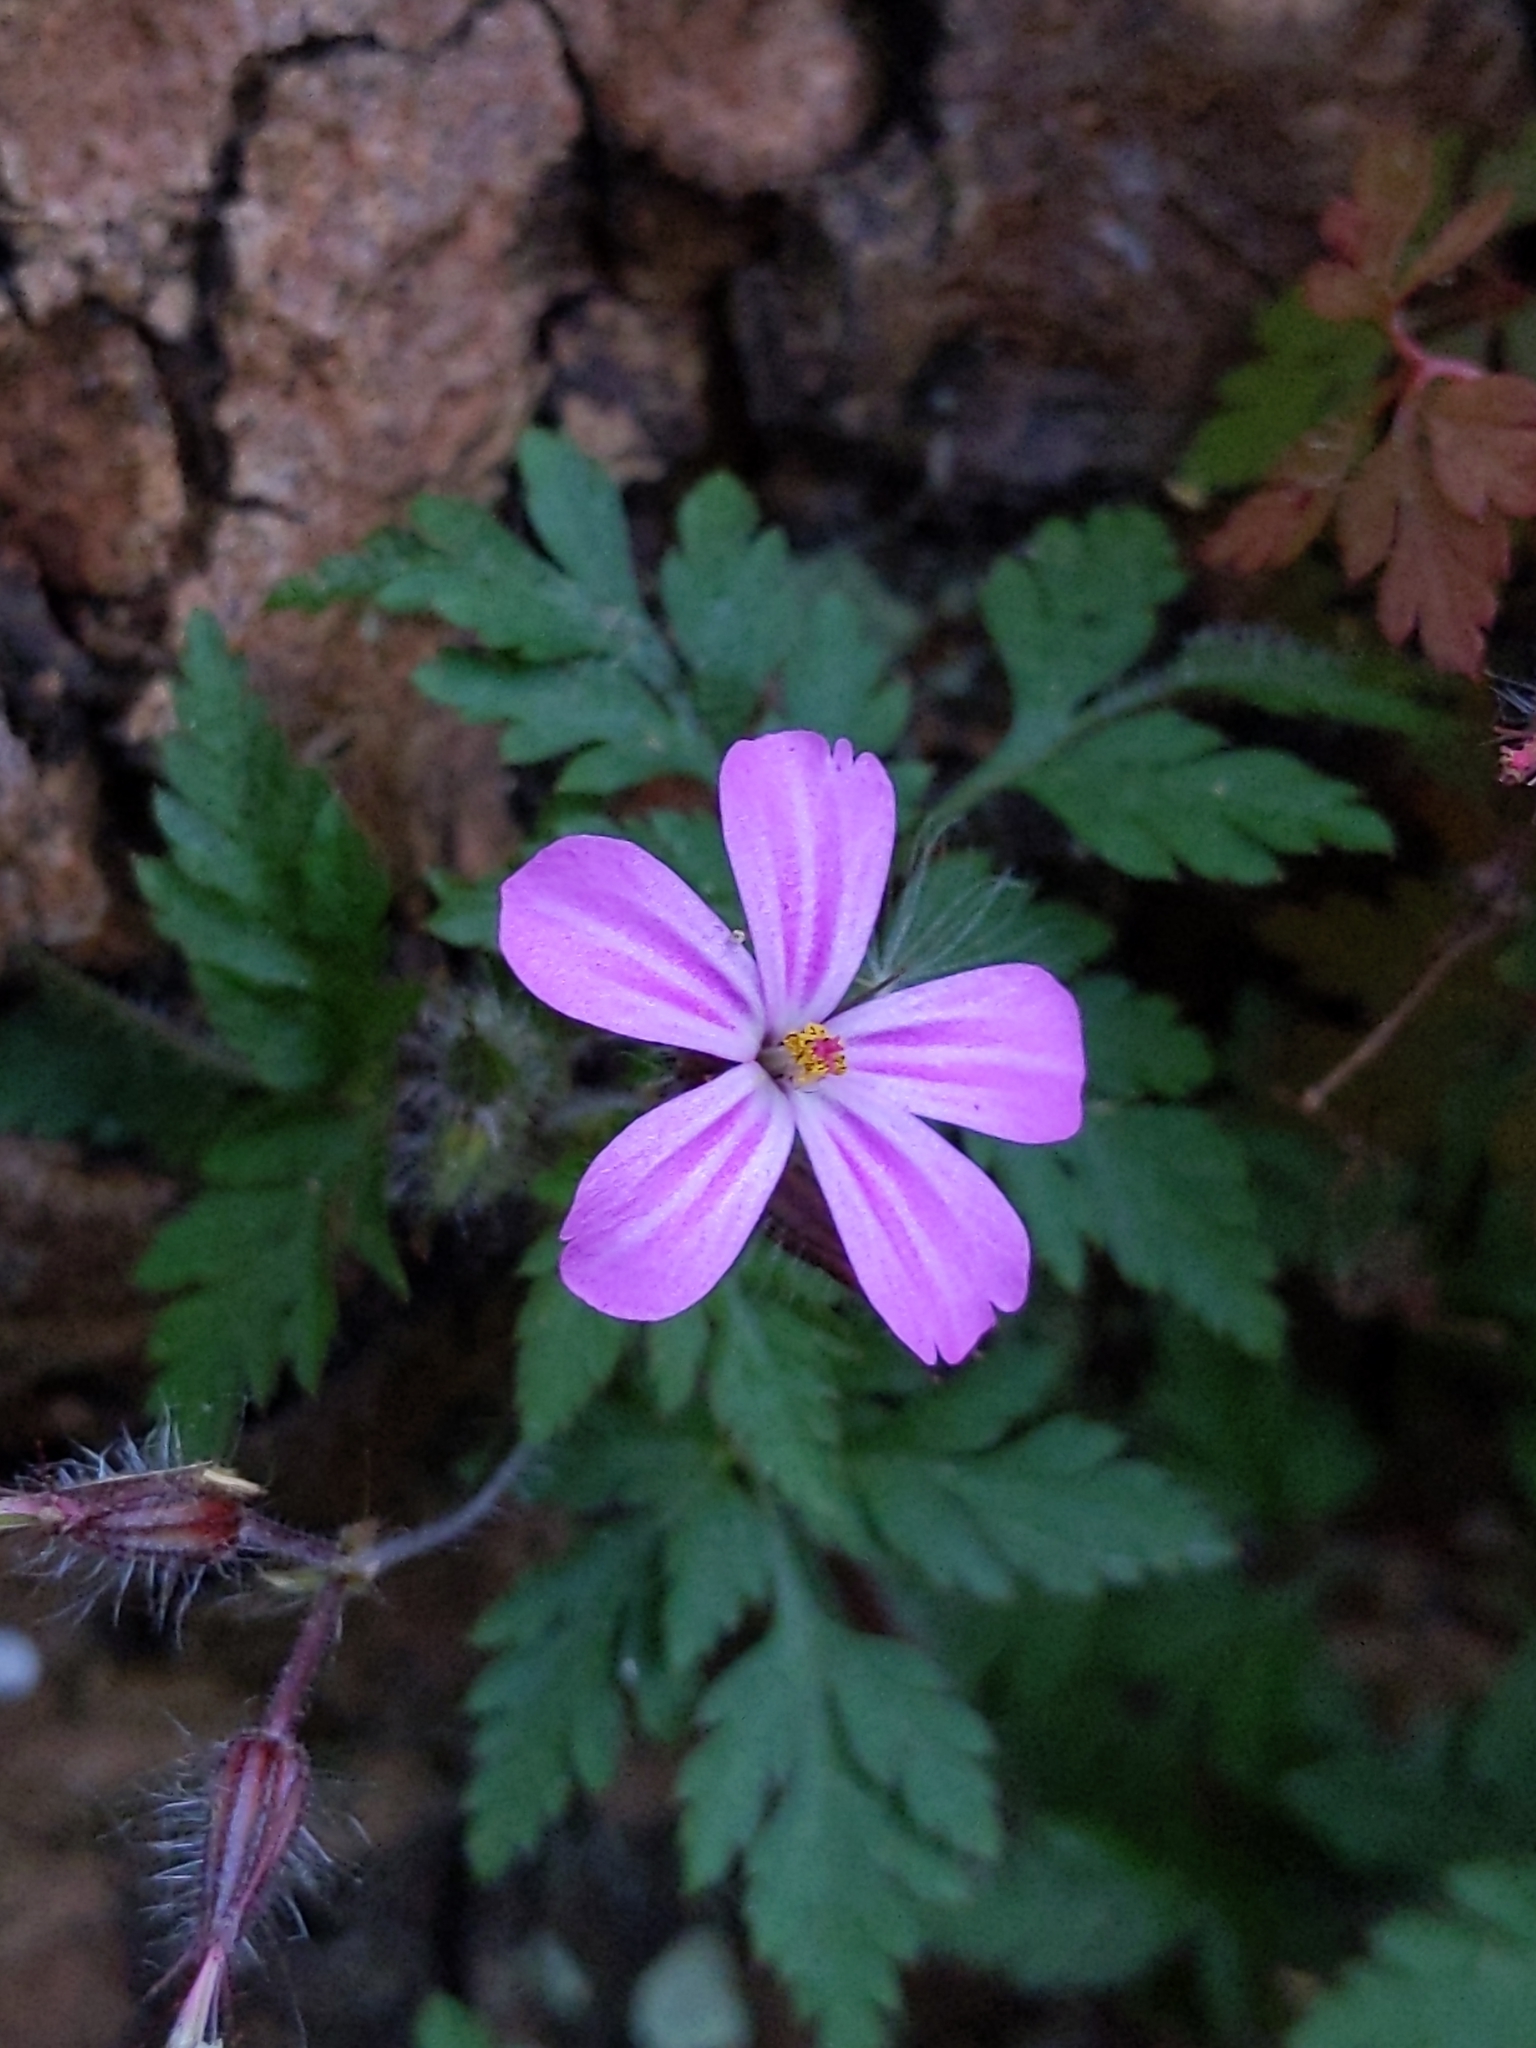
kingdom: Plantae
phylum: Tracheophyta
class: Magnoliopsida
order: Geraniales
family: Geraniaceae
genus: Geranium
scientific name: Geranium robertianum
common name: Herb-robert
